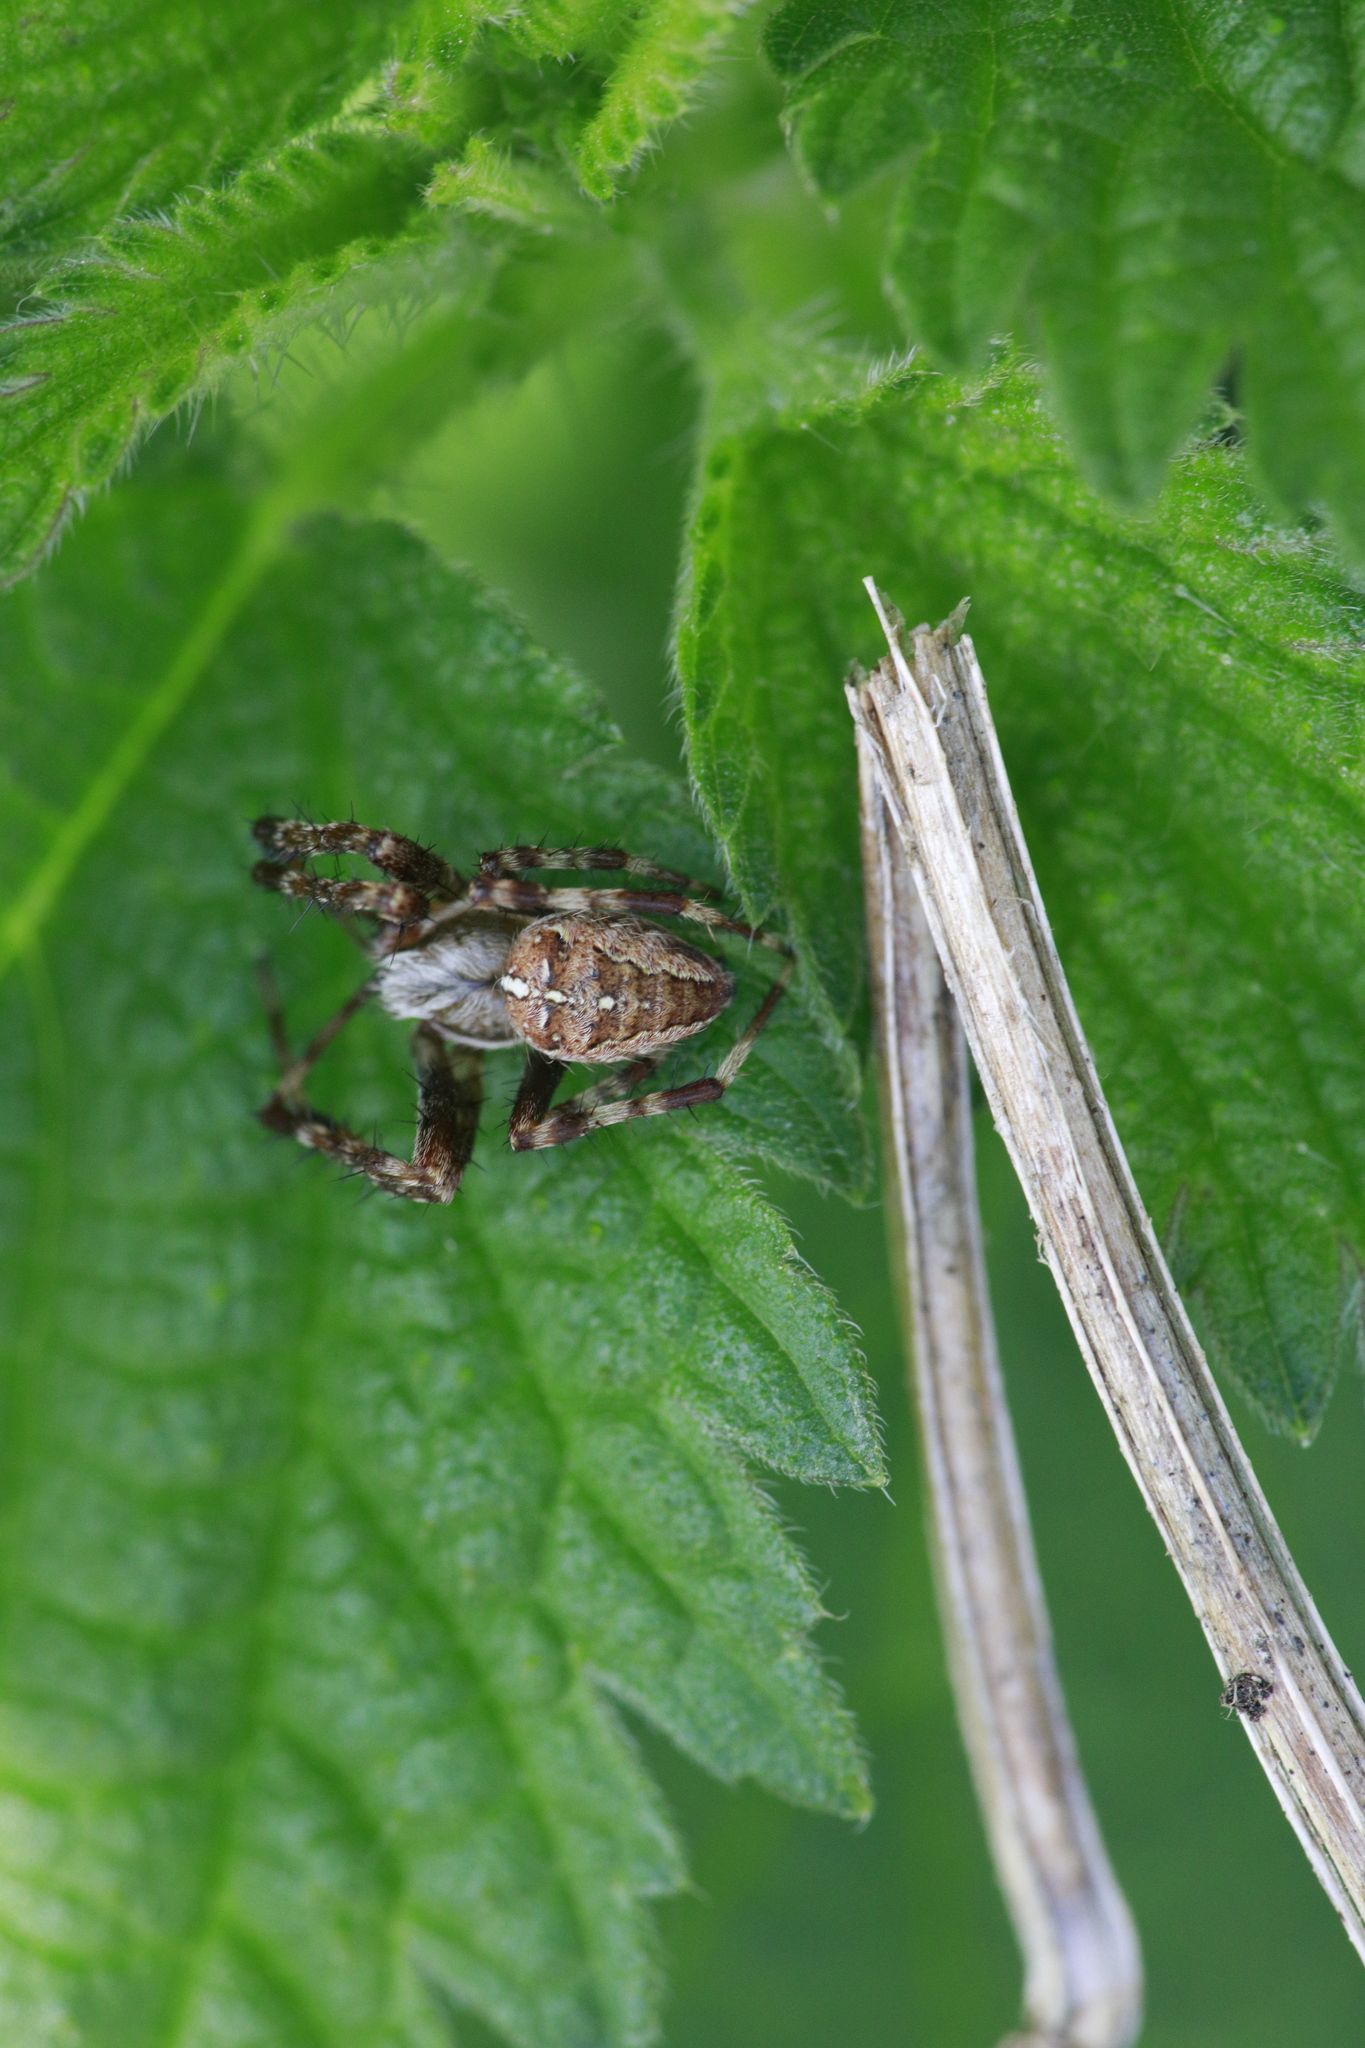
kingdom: Animalia
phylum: Arthropoda
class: Arachnida
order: Araneae
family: Araneidae
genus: Araneus
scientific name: Araneus diadematus
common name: Cross orbweaver
